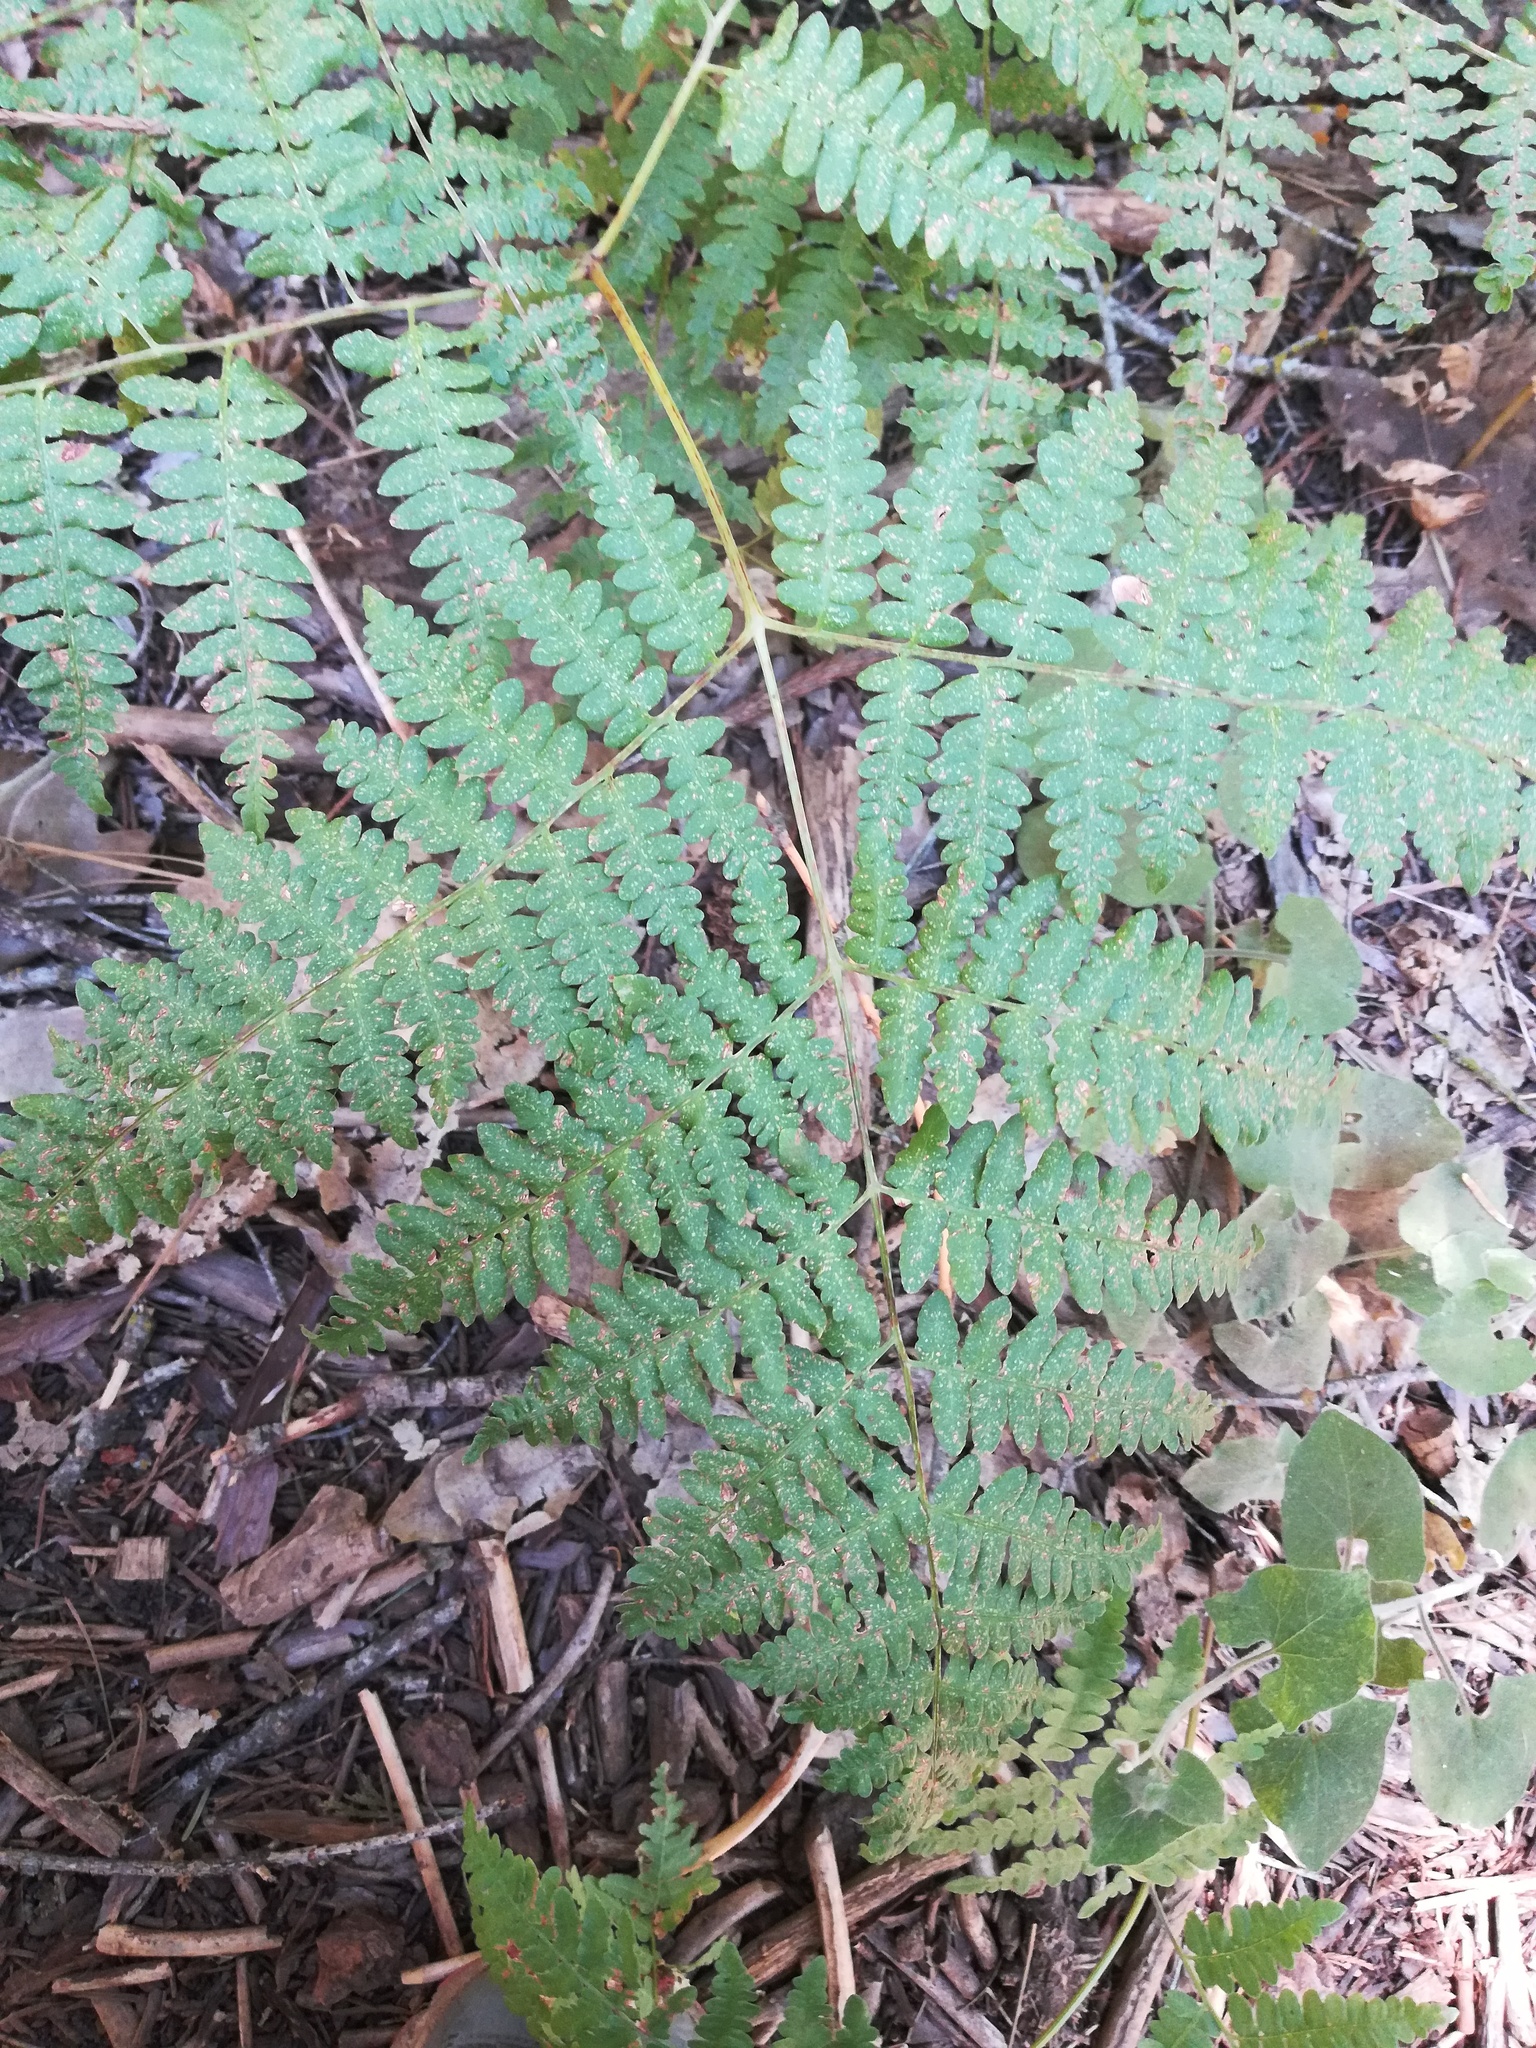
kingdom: Plantae
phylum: Tracheophyta
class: Polypodiopsida
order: Polypodiales
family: Dennstaedtiaceae
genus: Pteridium
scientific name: Pteridium aquilinum
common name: Bracken
